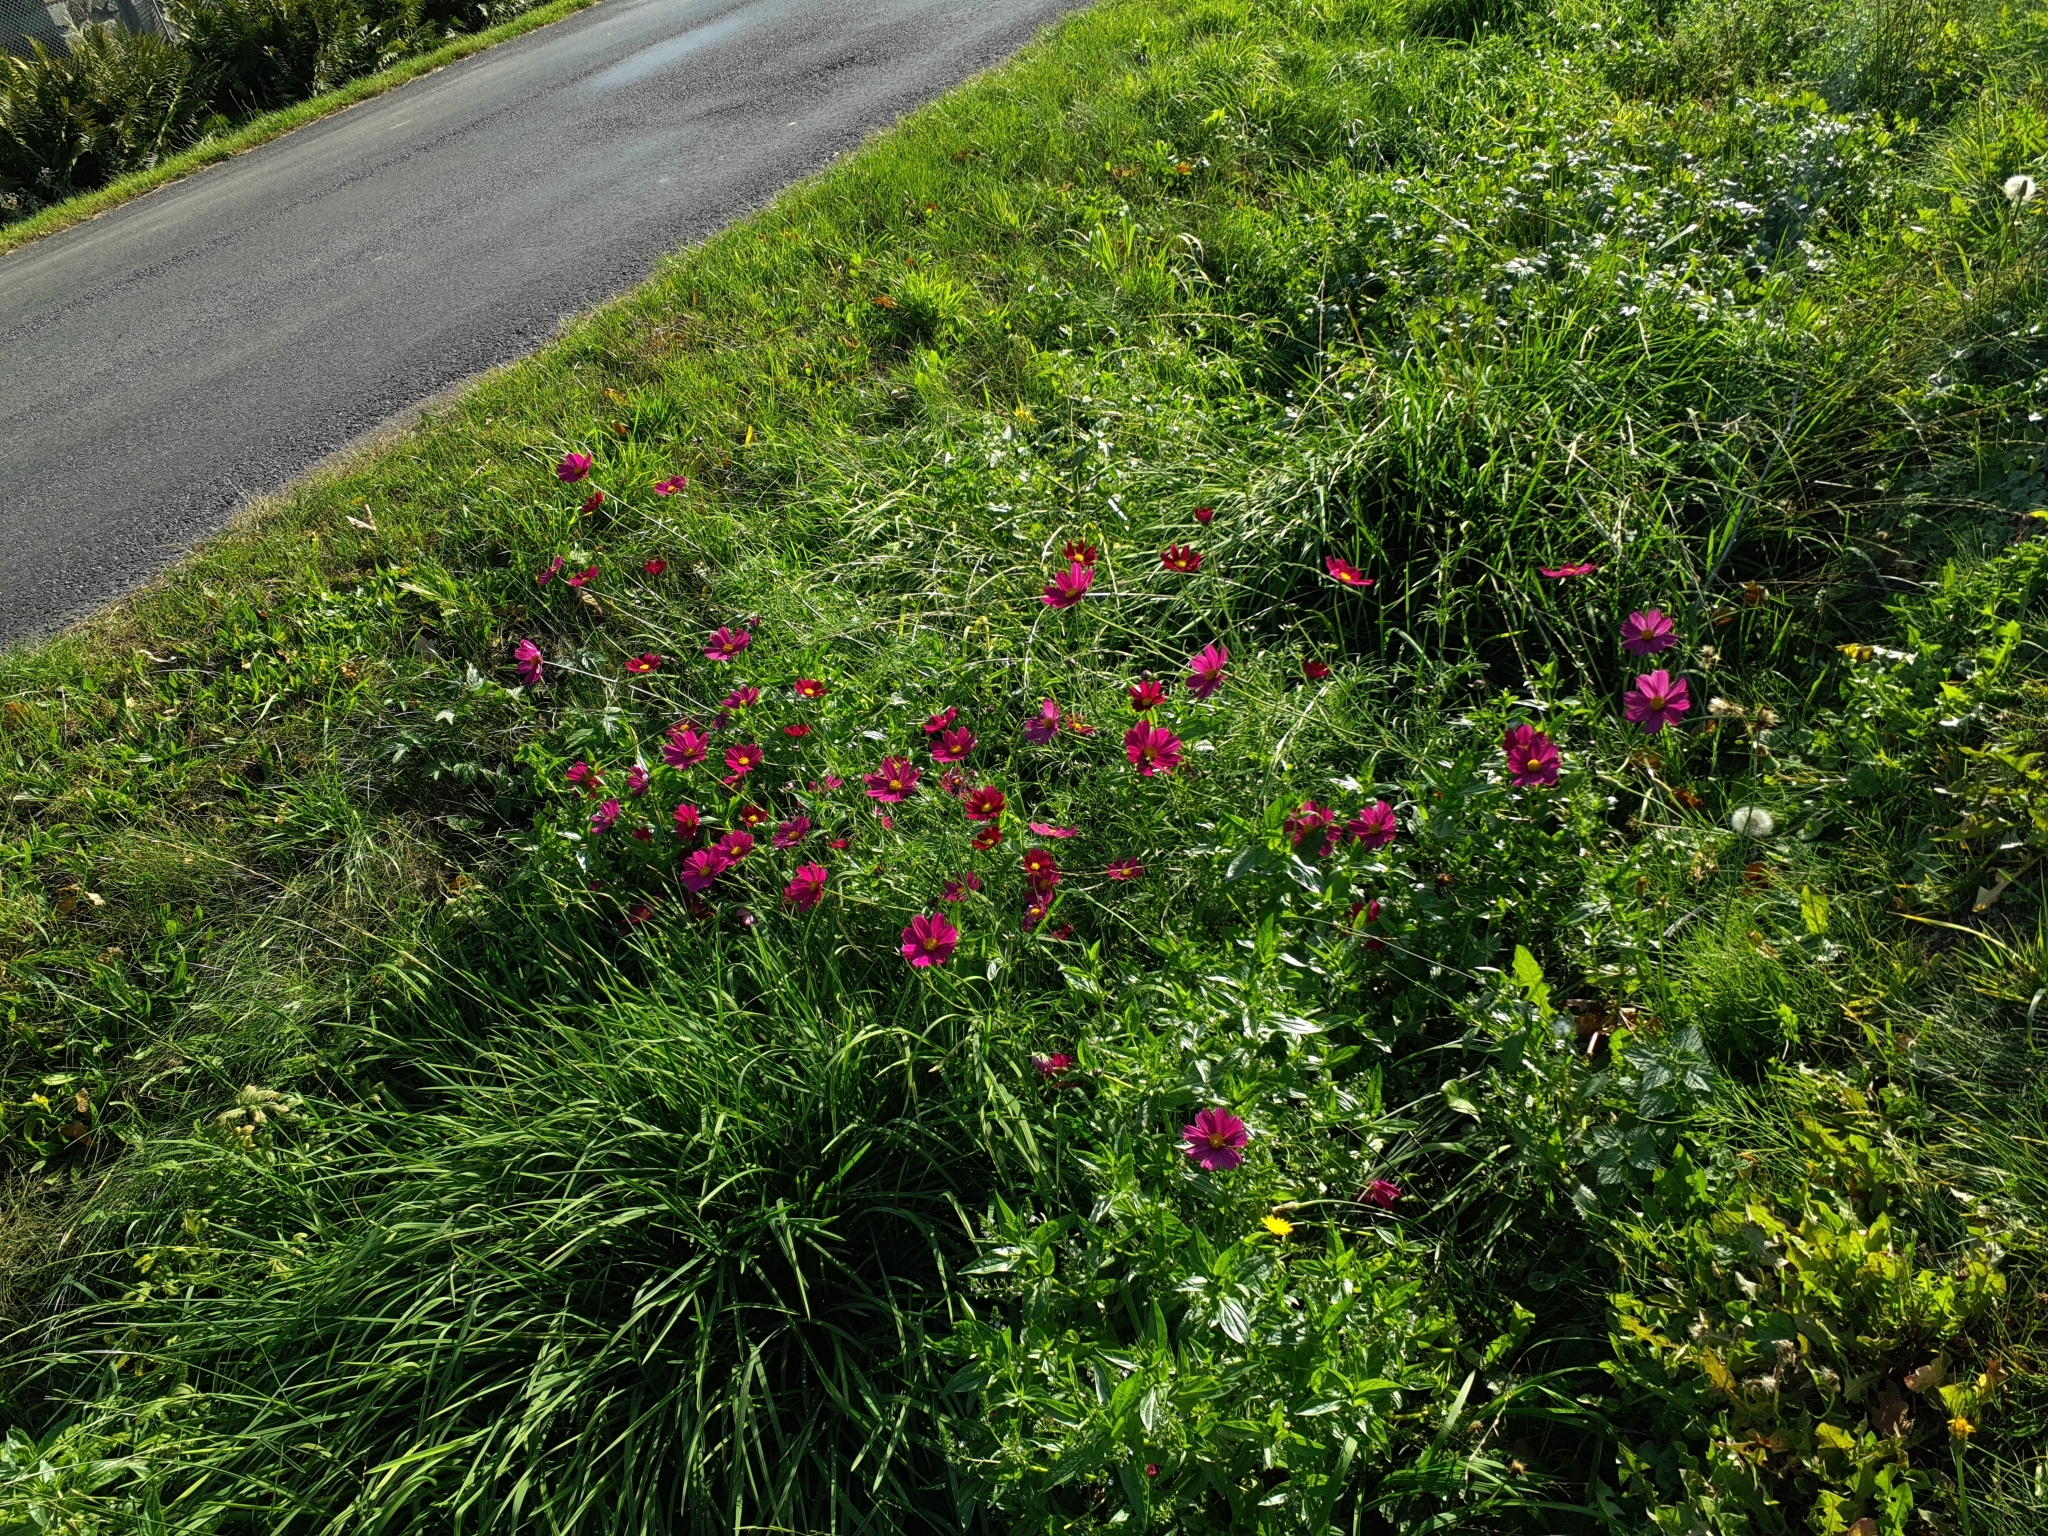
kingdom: Plantae
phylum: Tracheophyta
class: Magnoliopsida
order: Asterales
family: Asteraceae
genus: Cosmos
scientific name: Cosmos bipinnatus
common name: Garden cosmos
